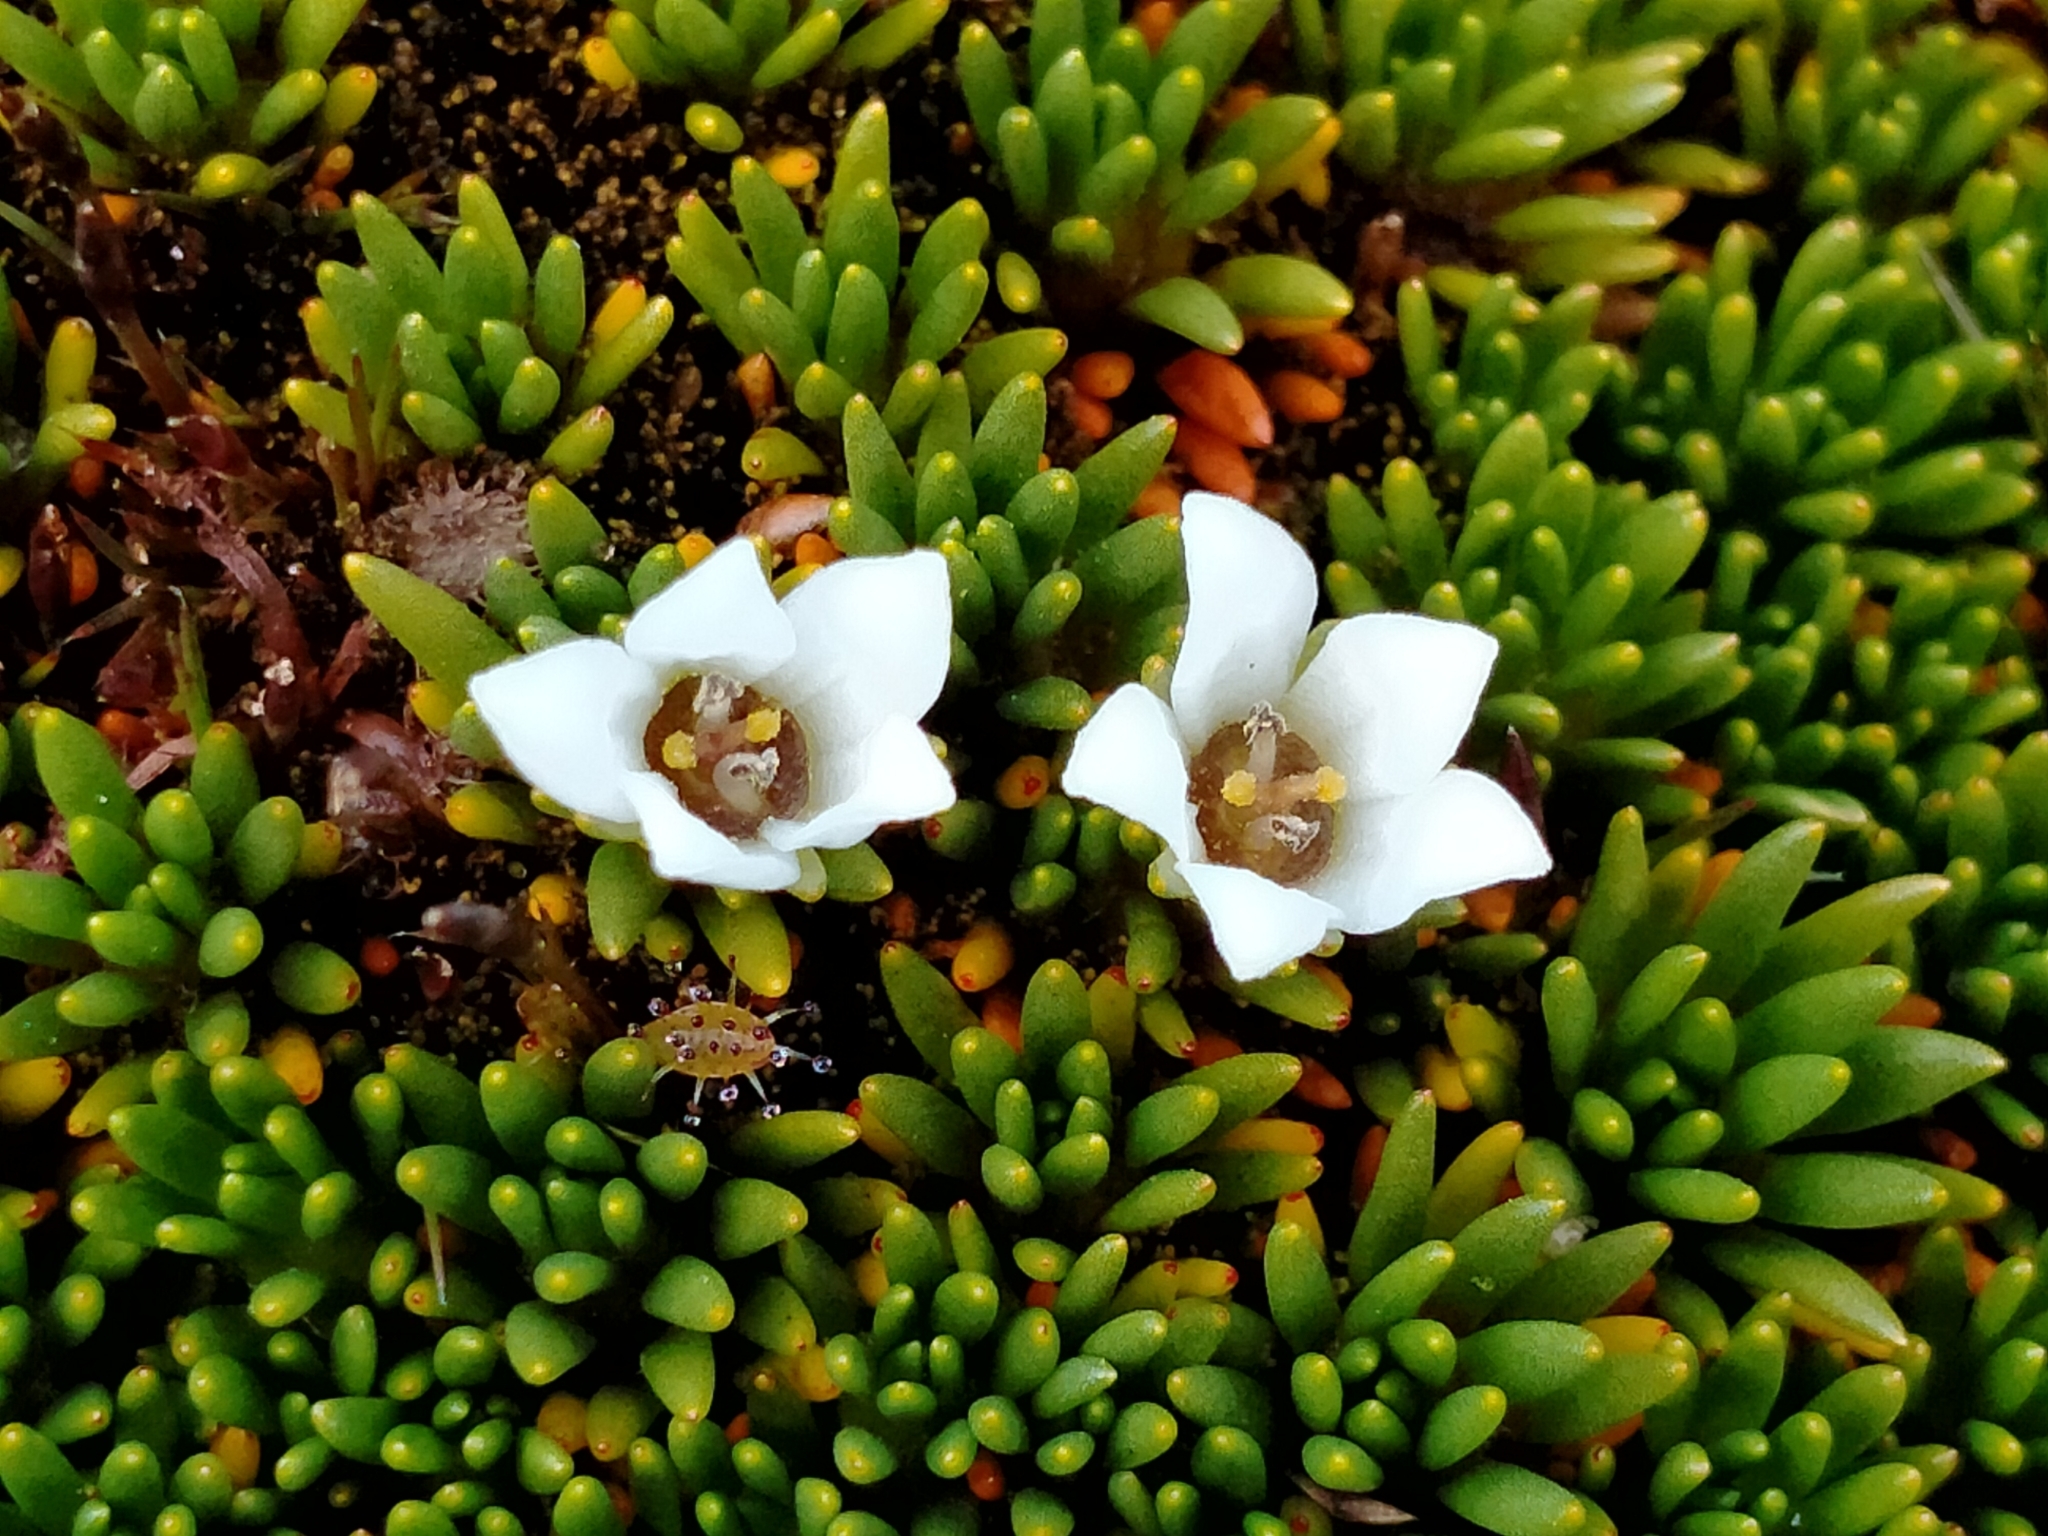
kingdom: Plantae
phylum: Tracheophyta
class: Magnoliopsida
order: Asterales
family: Stylidiaceae
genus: Donatia
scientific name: Donatia novae-zelandiae
